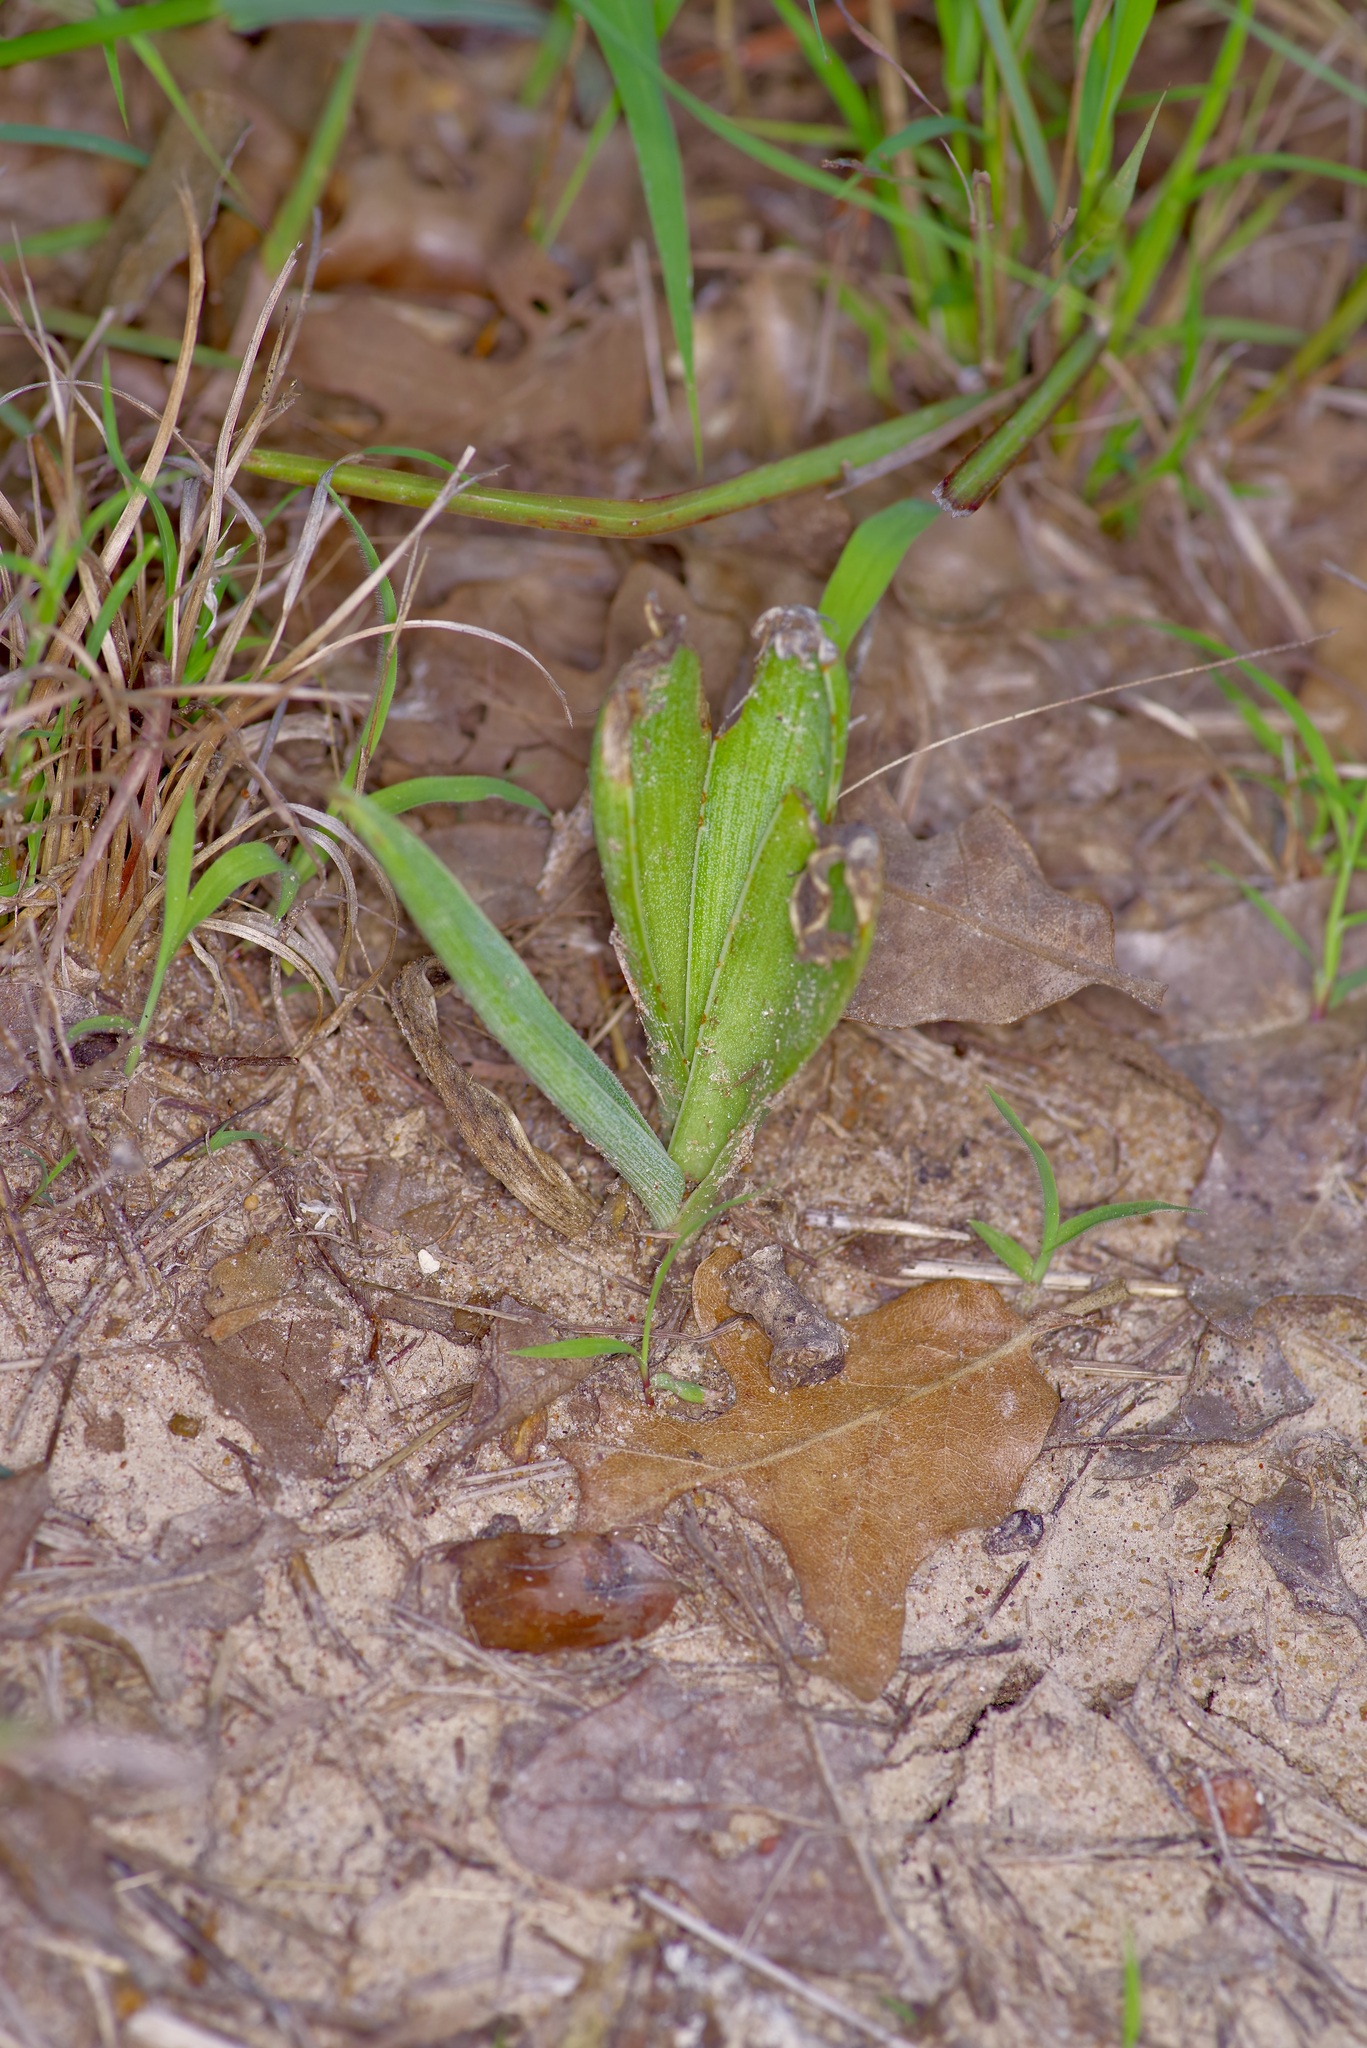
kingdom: Plantae
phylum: Tracheophyta
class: Liliopsida
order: Asparagales
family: Asparagaceae
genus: Agave
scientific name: Agave virginica
